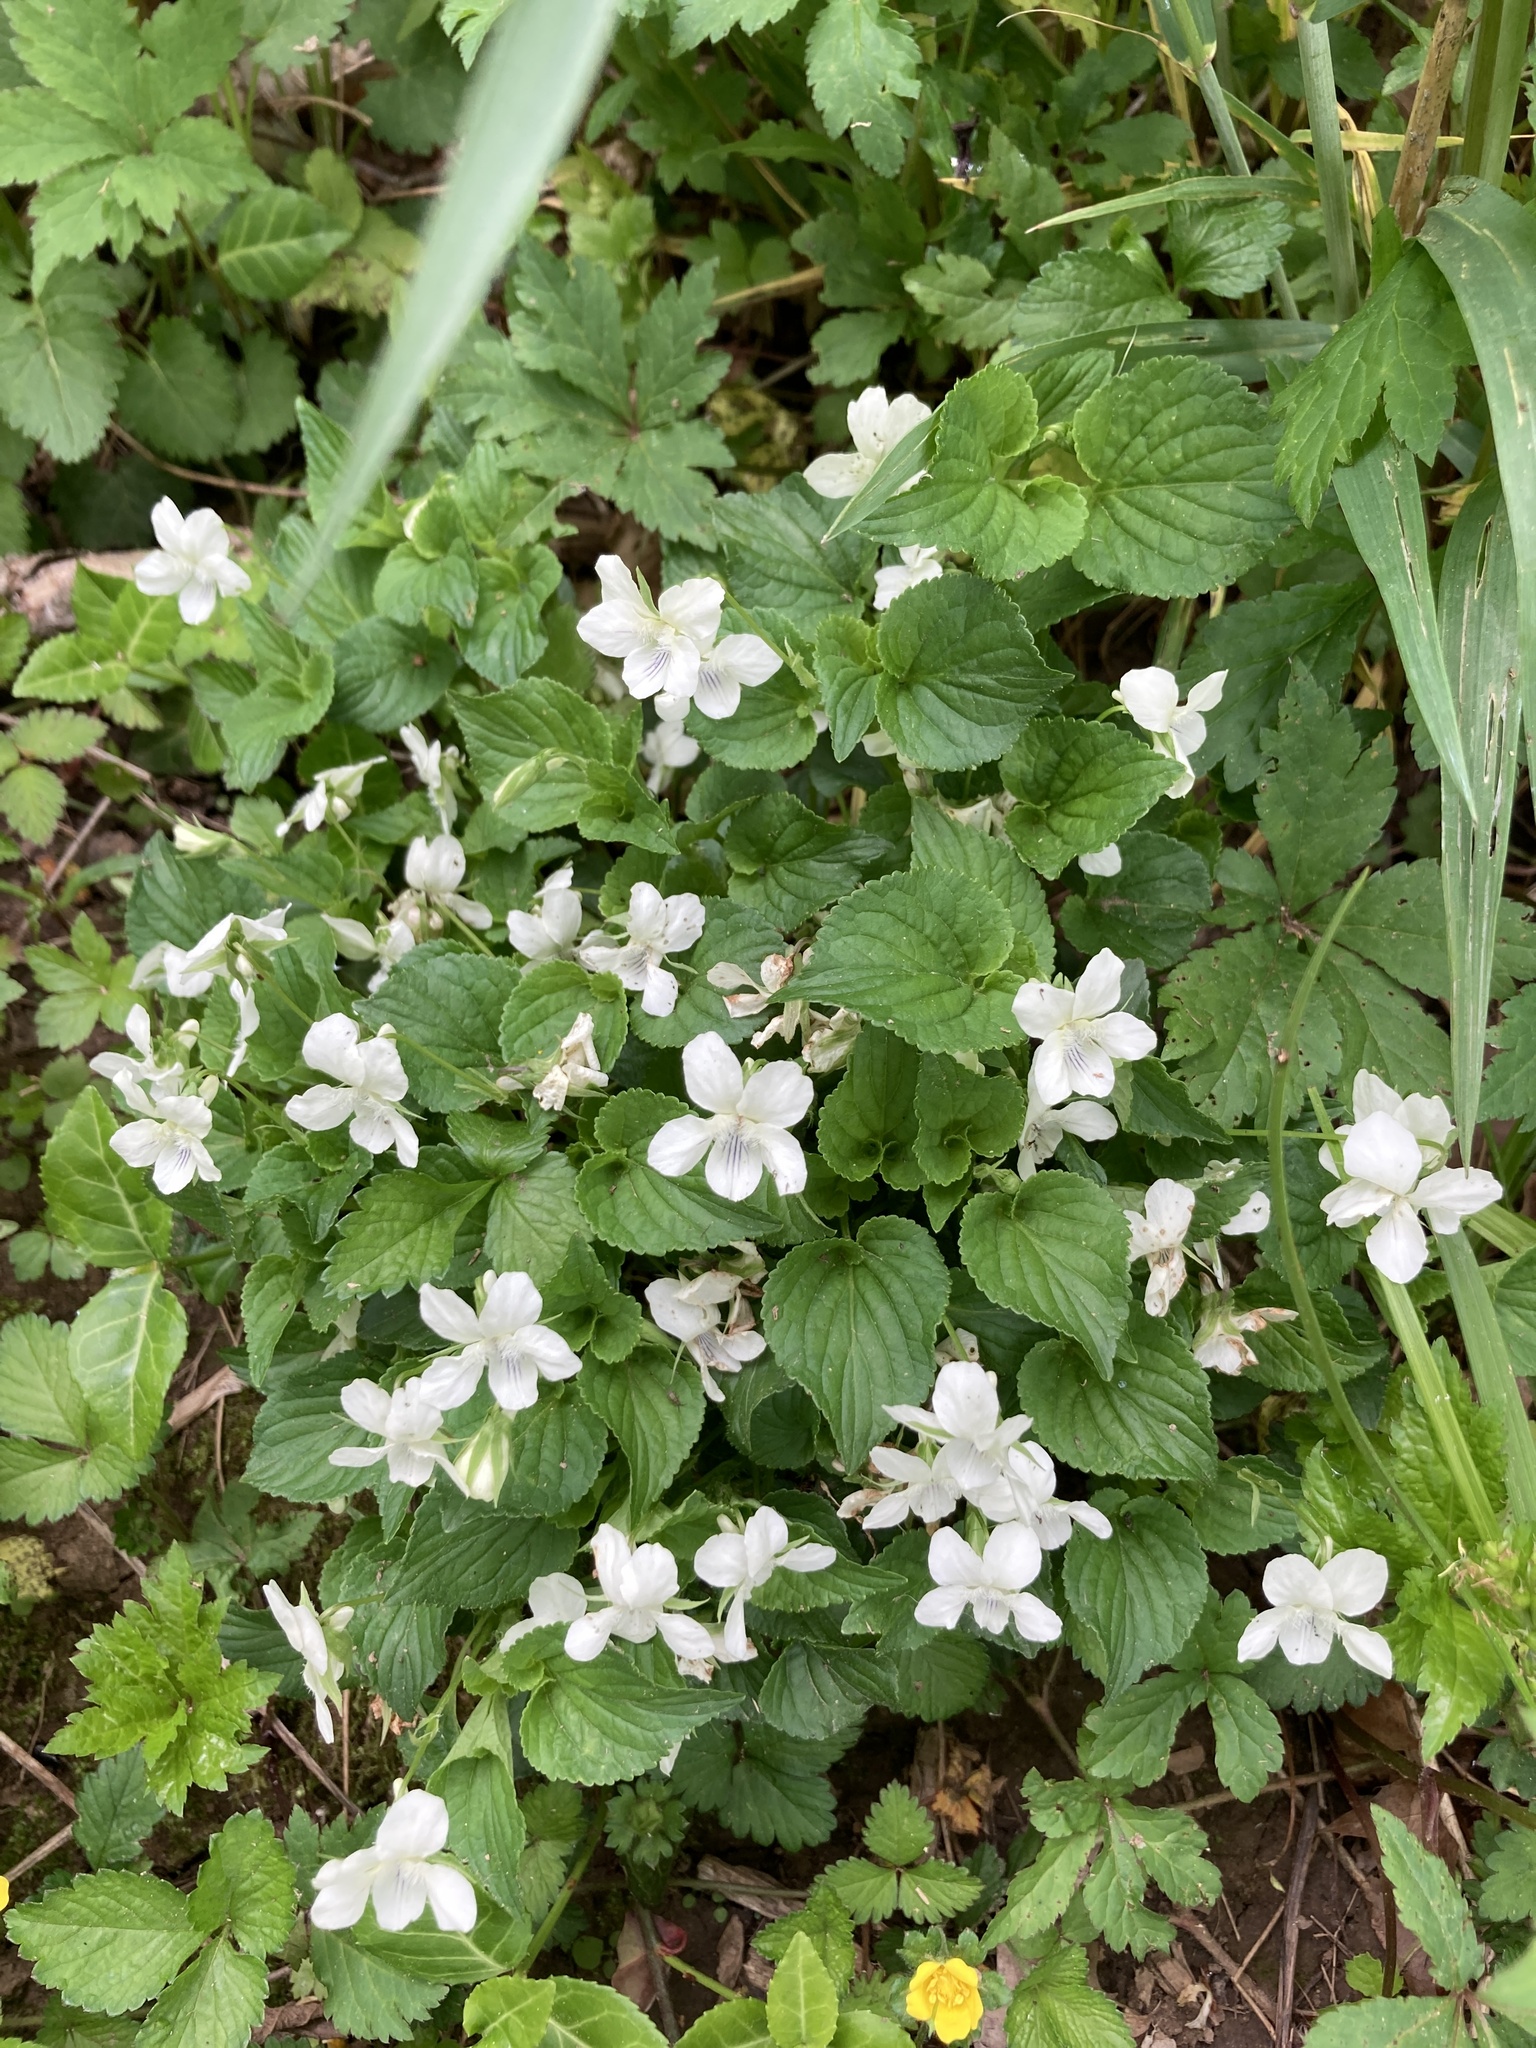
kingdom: Plantae
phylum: Tracheophyta
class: Magnoliopsida
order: Malpighiales
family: Violaceae
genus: Viola
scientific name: Viola striata
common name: Cream violet
